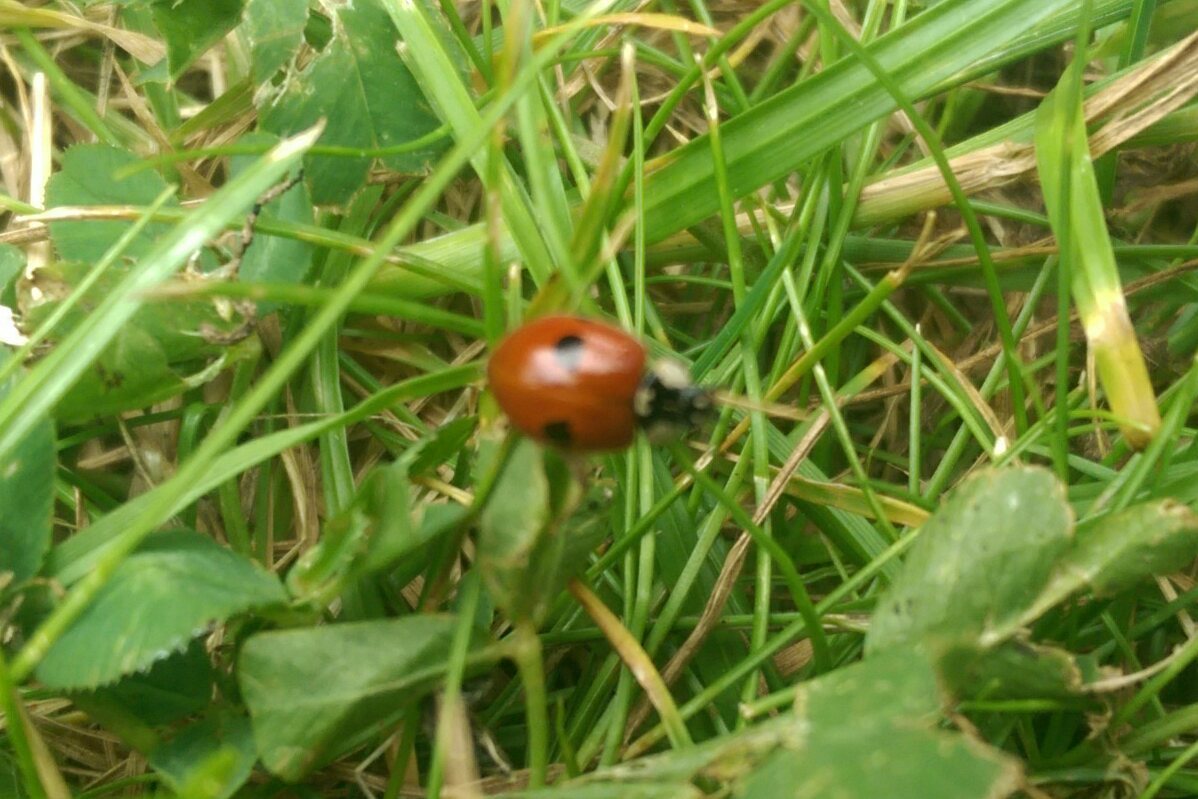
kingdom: Animalia
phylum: Arthropoda
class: Insecta
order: Coleoptera
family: Coccinellidae
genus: Adalia
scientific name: Adalia bipunctata
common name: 2-spot ladybird
